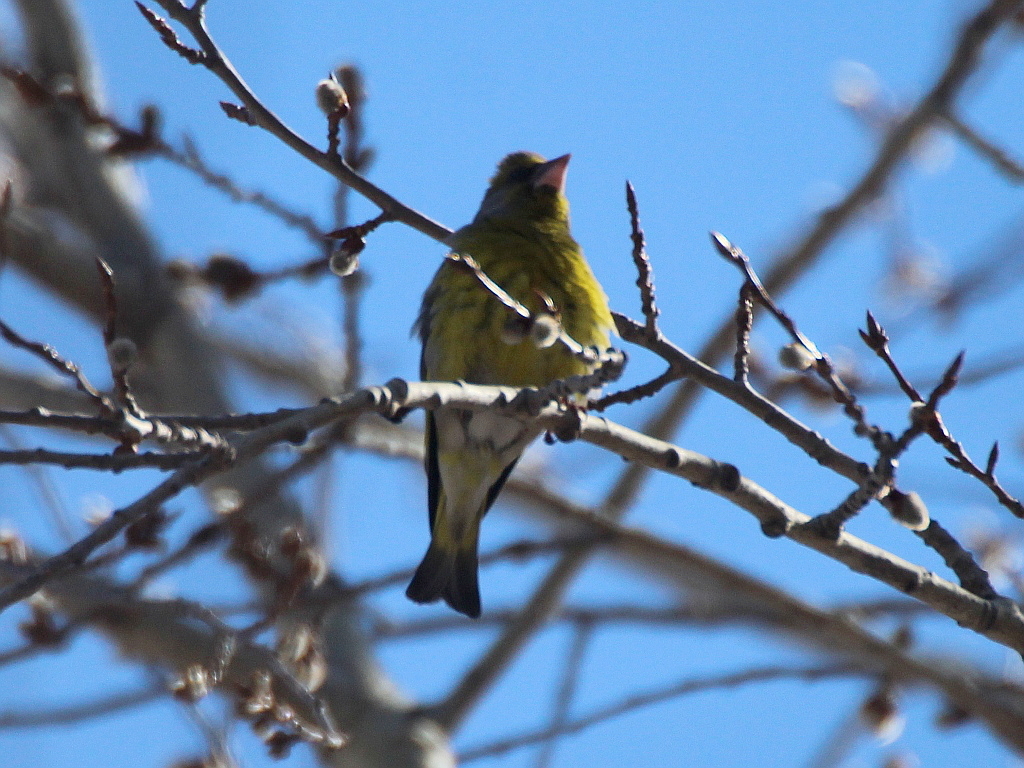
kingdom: Plantae
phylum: Tracheophyta
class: Liliopsida
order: Poales
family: Poaceae
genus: Chloris
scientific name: Chloris chloris
